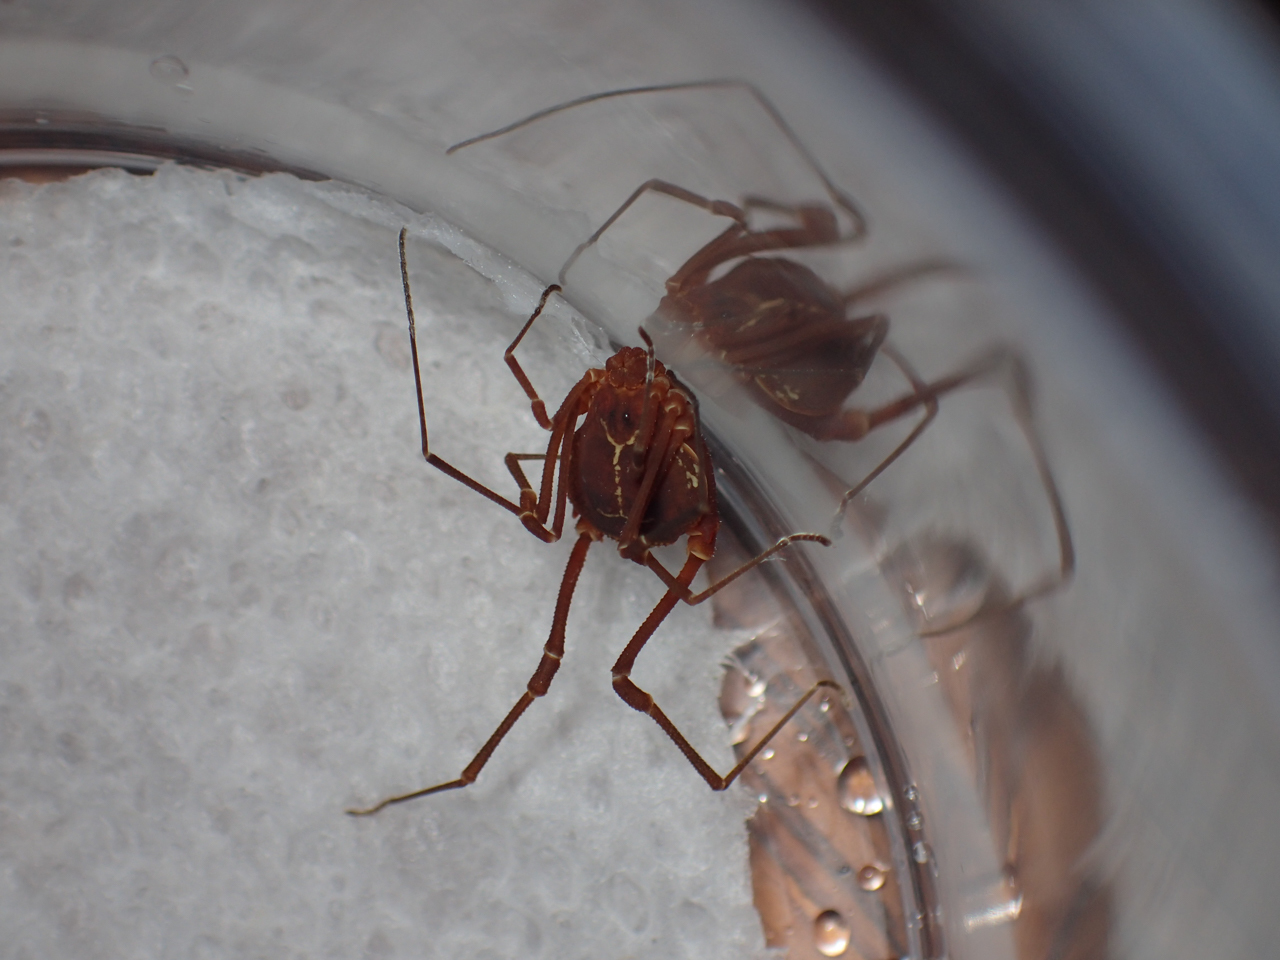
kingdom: Animalia
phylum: Arthropoda
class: Arachnida
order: Opiliones
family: Cosmetidae
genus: Libitioides
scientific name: Libitioides sayi
